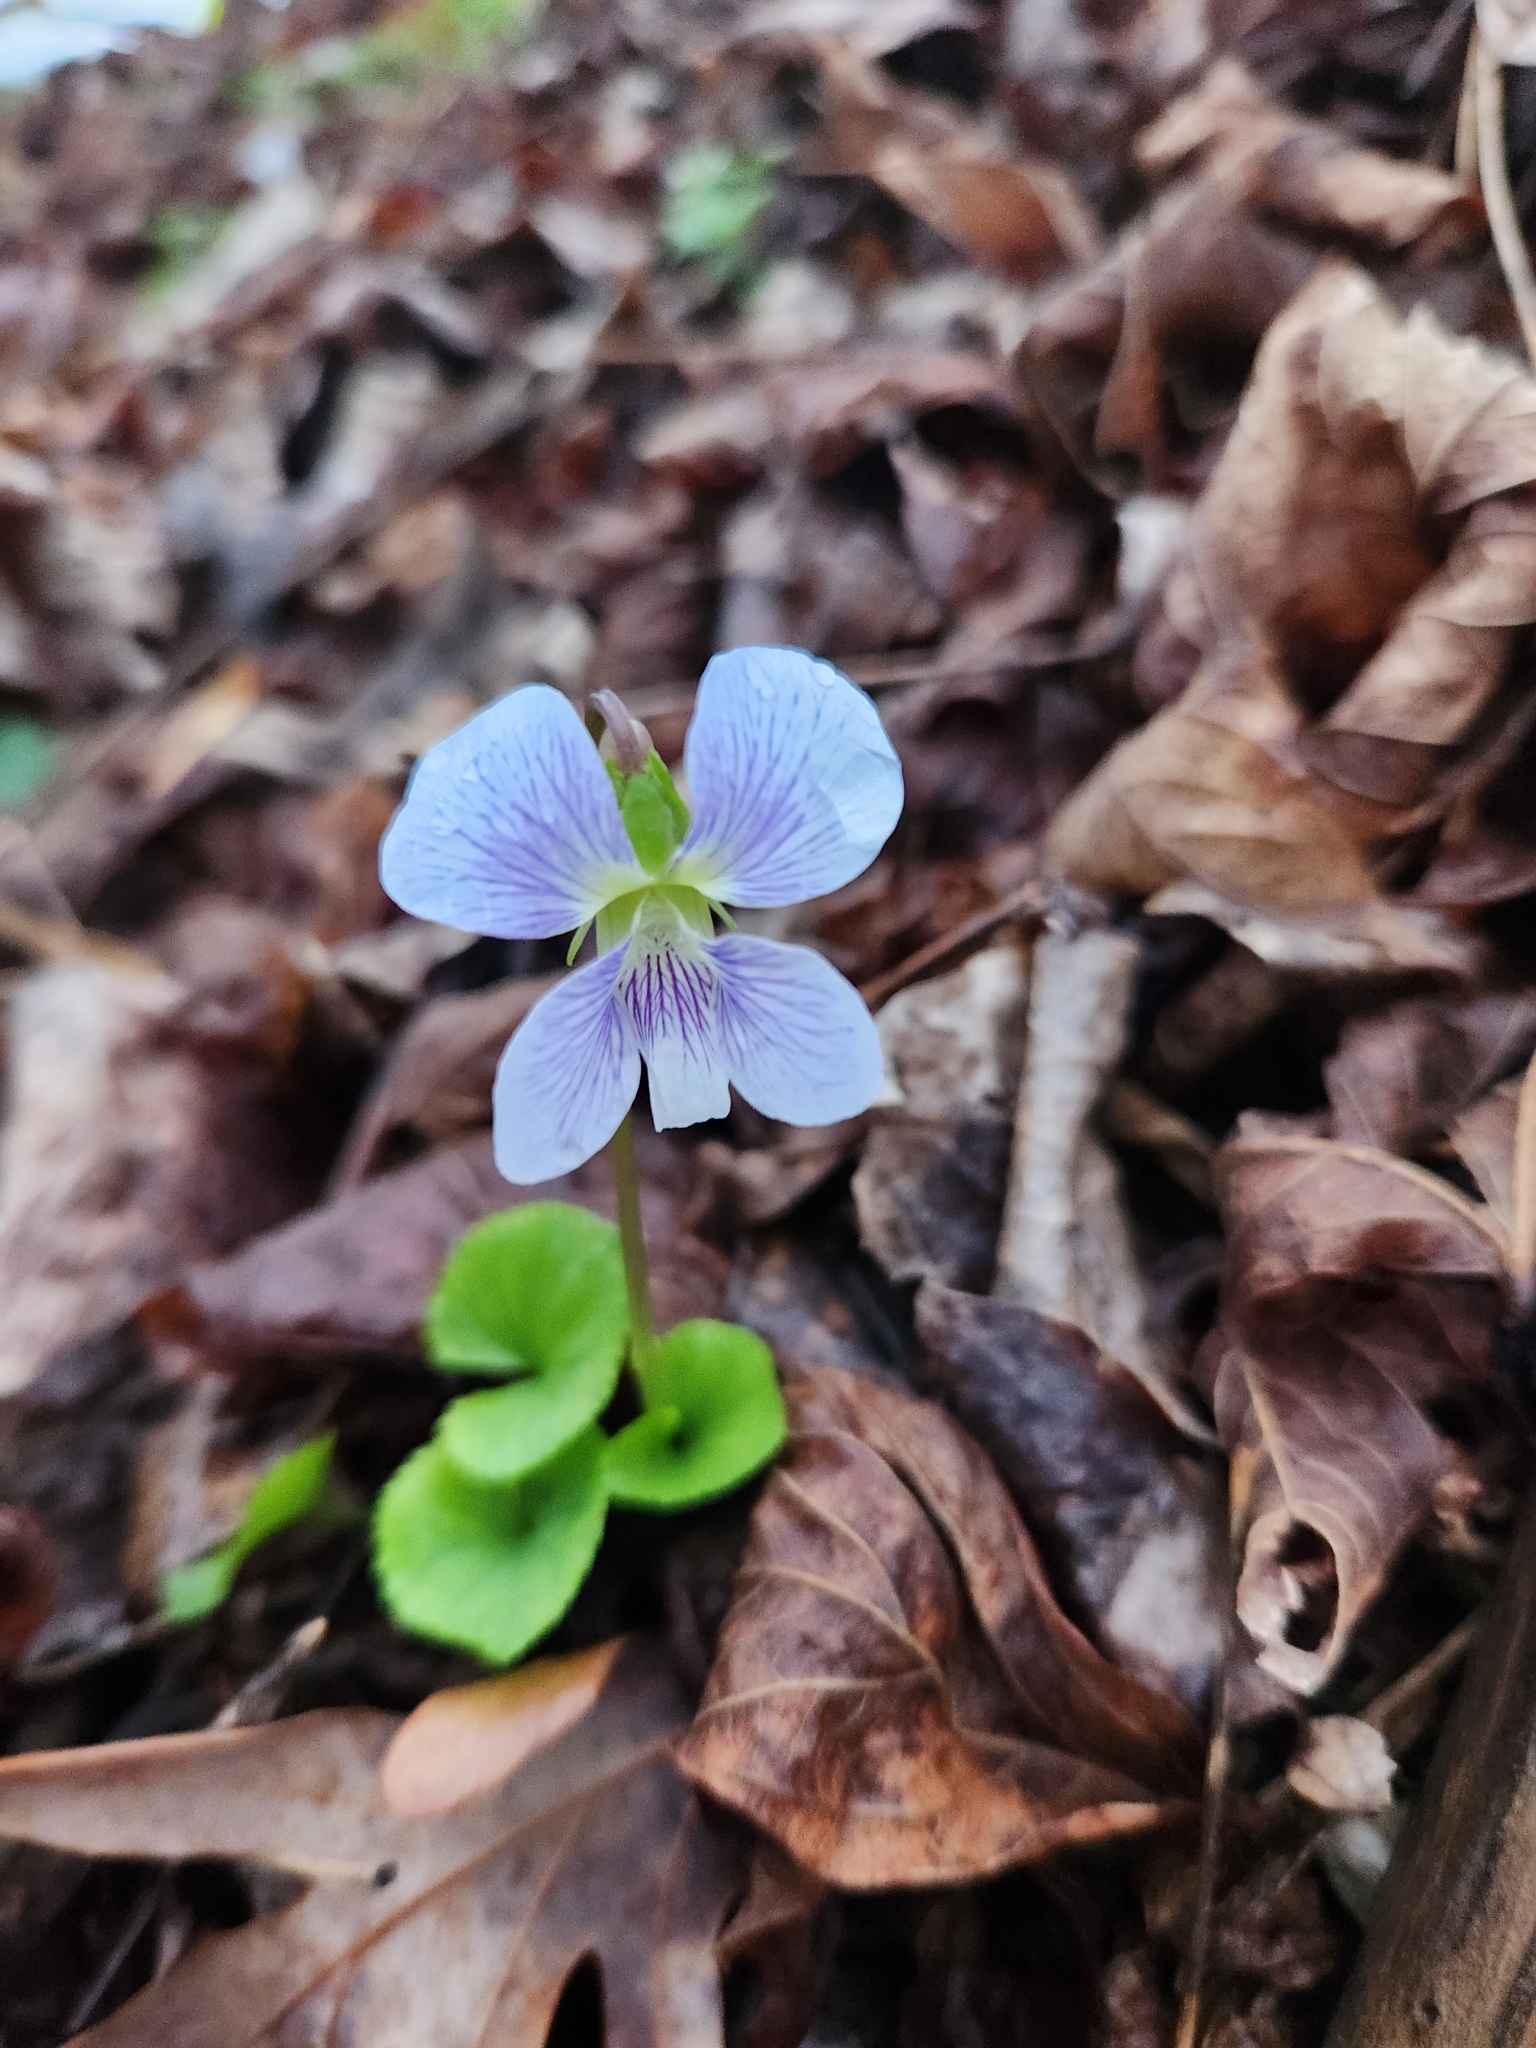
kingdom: Plantae
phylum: Tracheophyta
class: Magnoliopsida
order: Malpighiales
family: Violaceae
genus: Viola
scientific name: Viola sororia
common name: Dooryard violet
